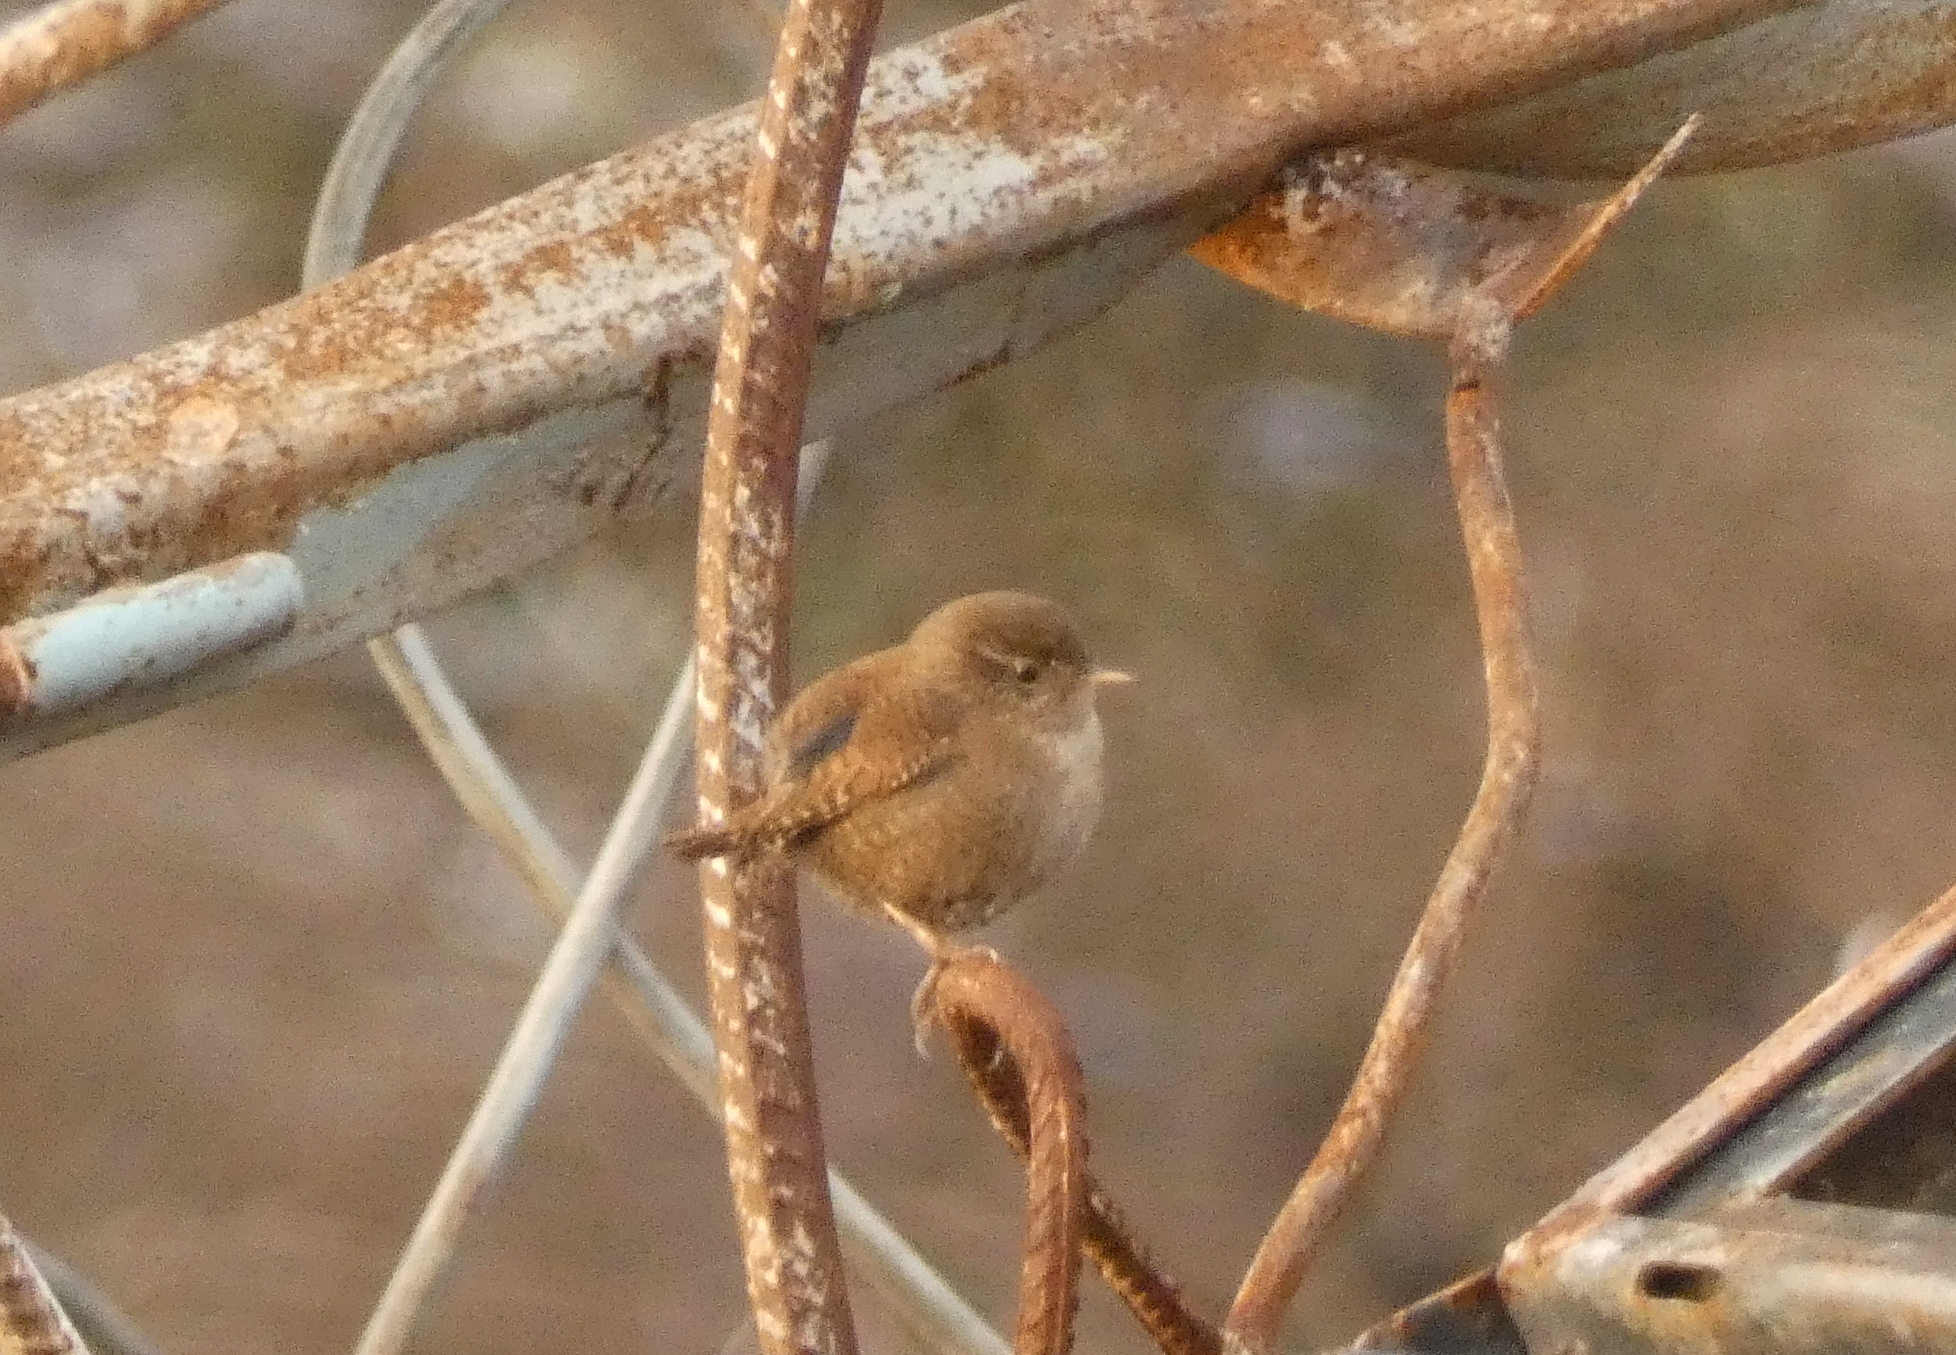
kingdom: Animalia
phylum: Chordata
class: Aves
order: Passeriformes
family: Troglodytidae
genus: Troglodytes
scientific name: Troglodytes troglodytes
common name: Eurasian wren
